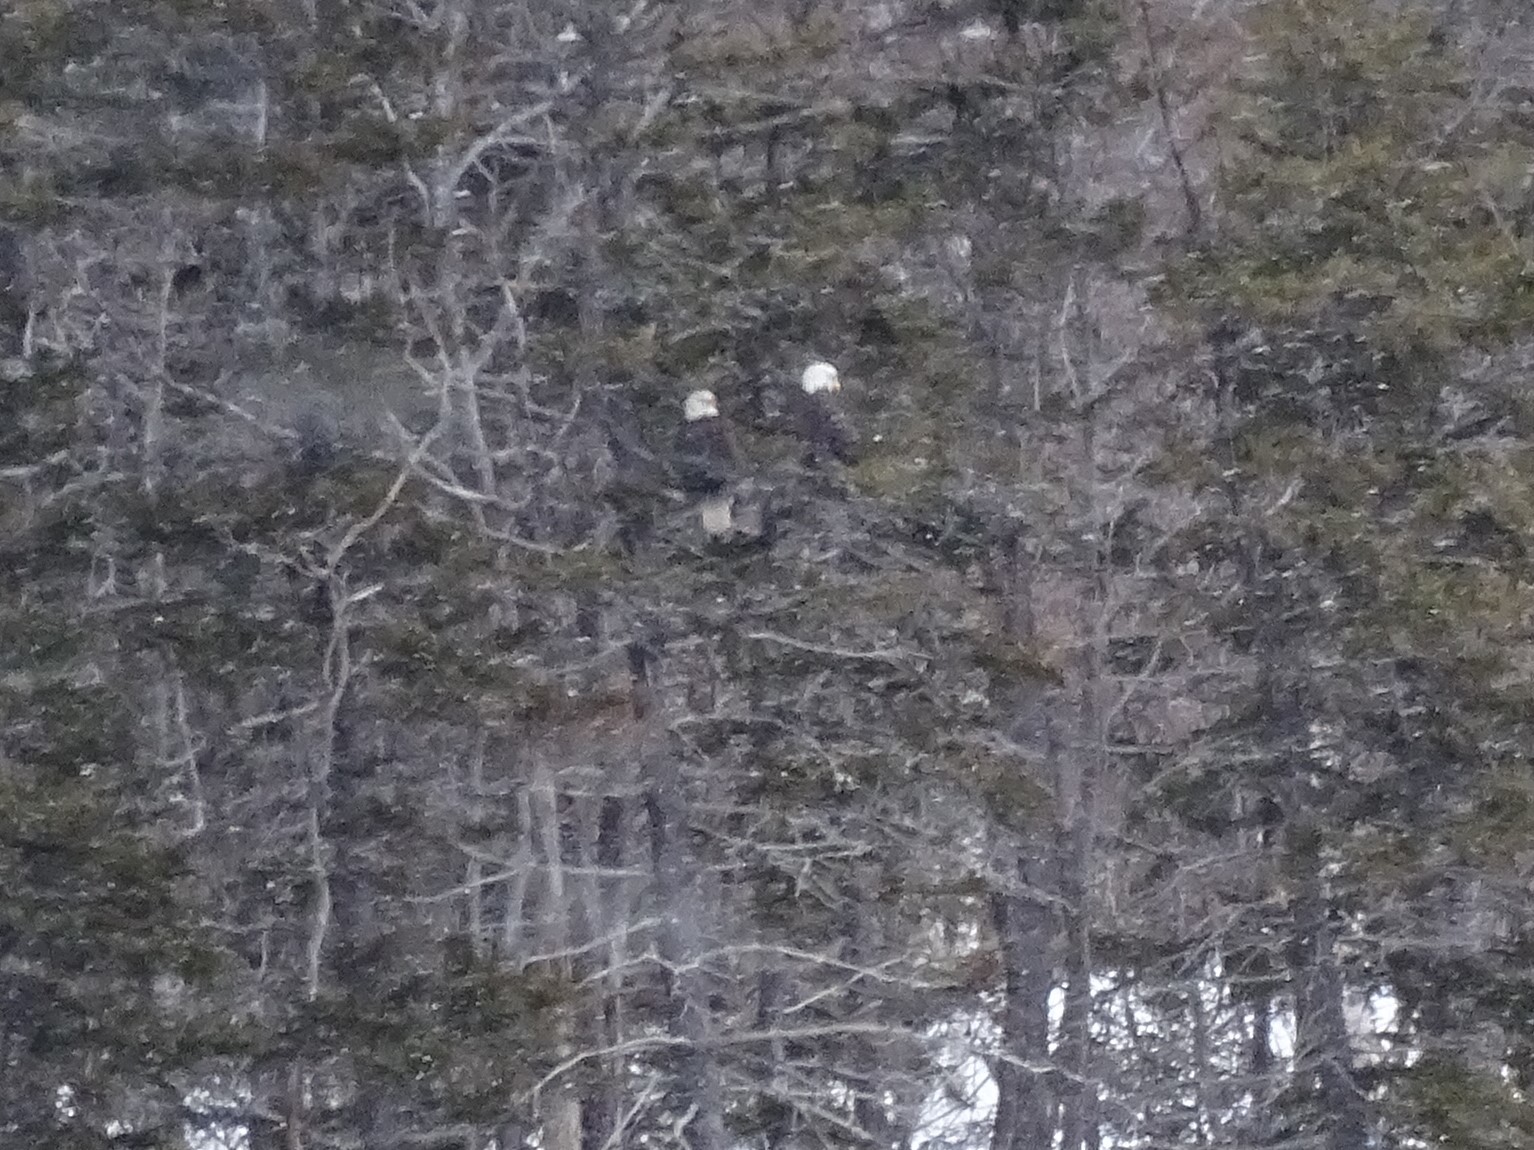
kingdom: Animalia
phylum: Chordata
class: Aves
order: Accipitriformes
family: Accipitridae
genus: Haliaeetus
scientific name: Haliaeetus leucocephalus
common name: Bald eagle
